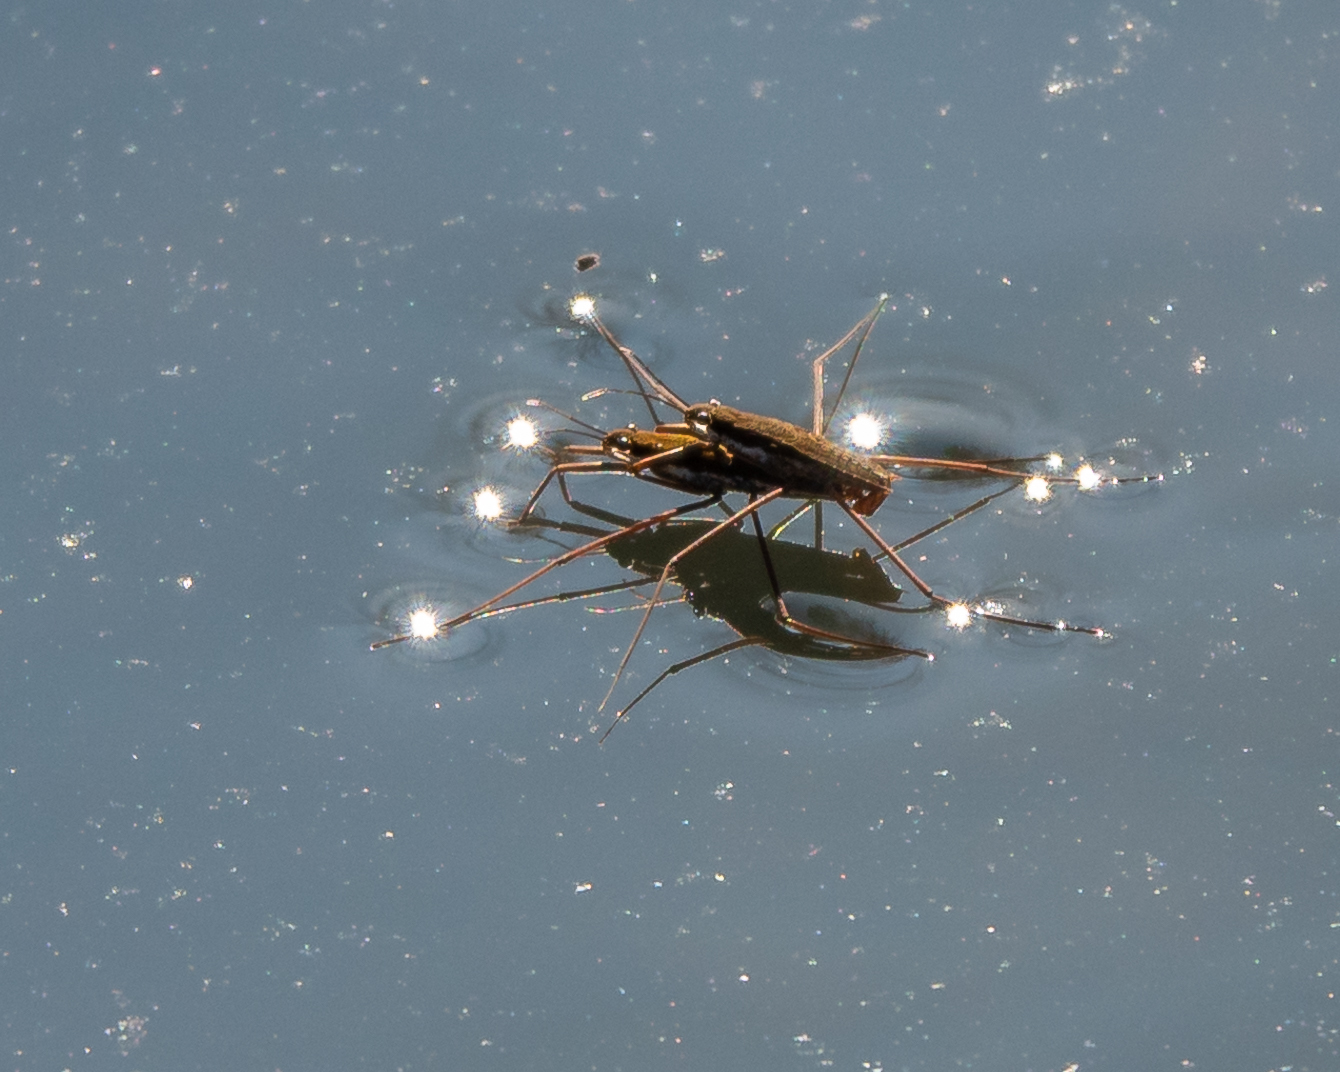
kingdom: Animalia
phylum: Arthropoda
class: Insecta
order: Hemiptera
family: Gerridae
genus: Aquarius
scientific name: Aquarius remigis
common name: Common water strider
